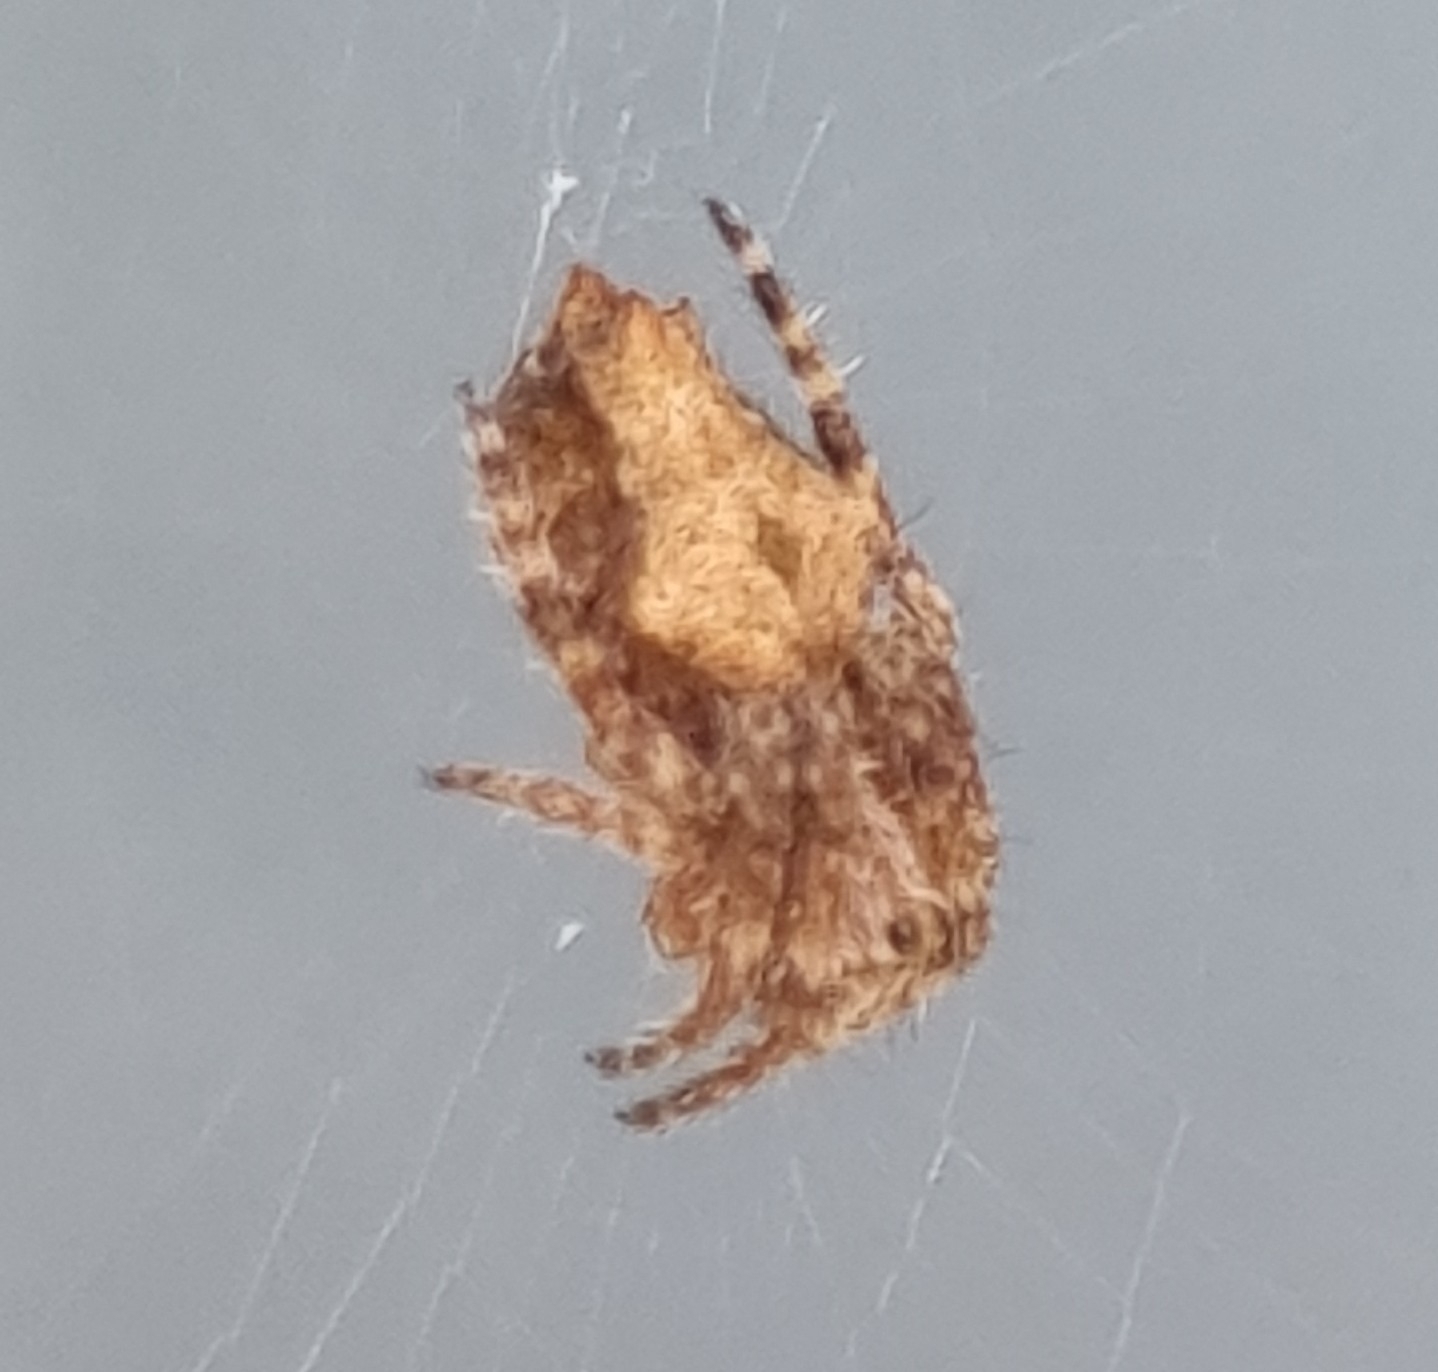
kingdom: Animalia
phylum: Arthropoda
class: Arachnida
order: Araneae
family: Araneidae
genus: Eriophora
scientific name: Eriophora pustulosa
